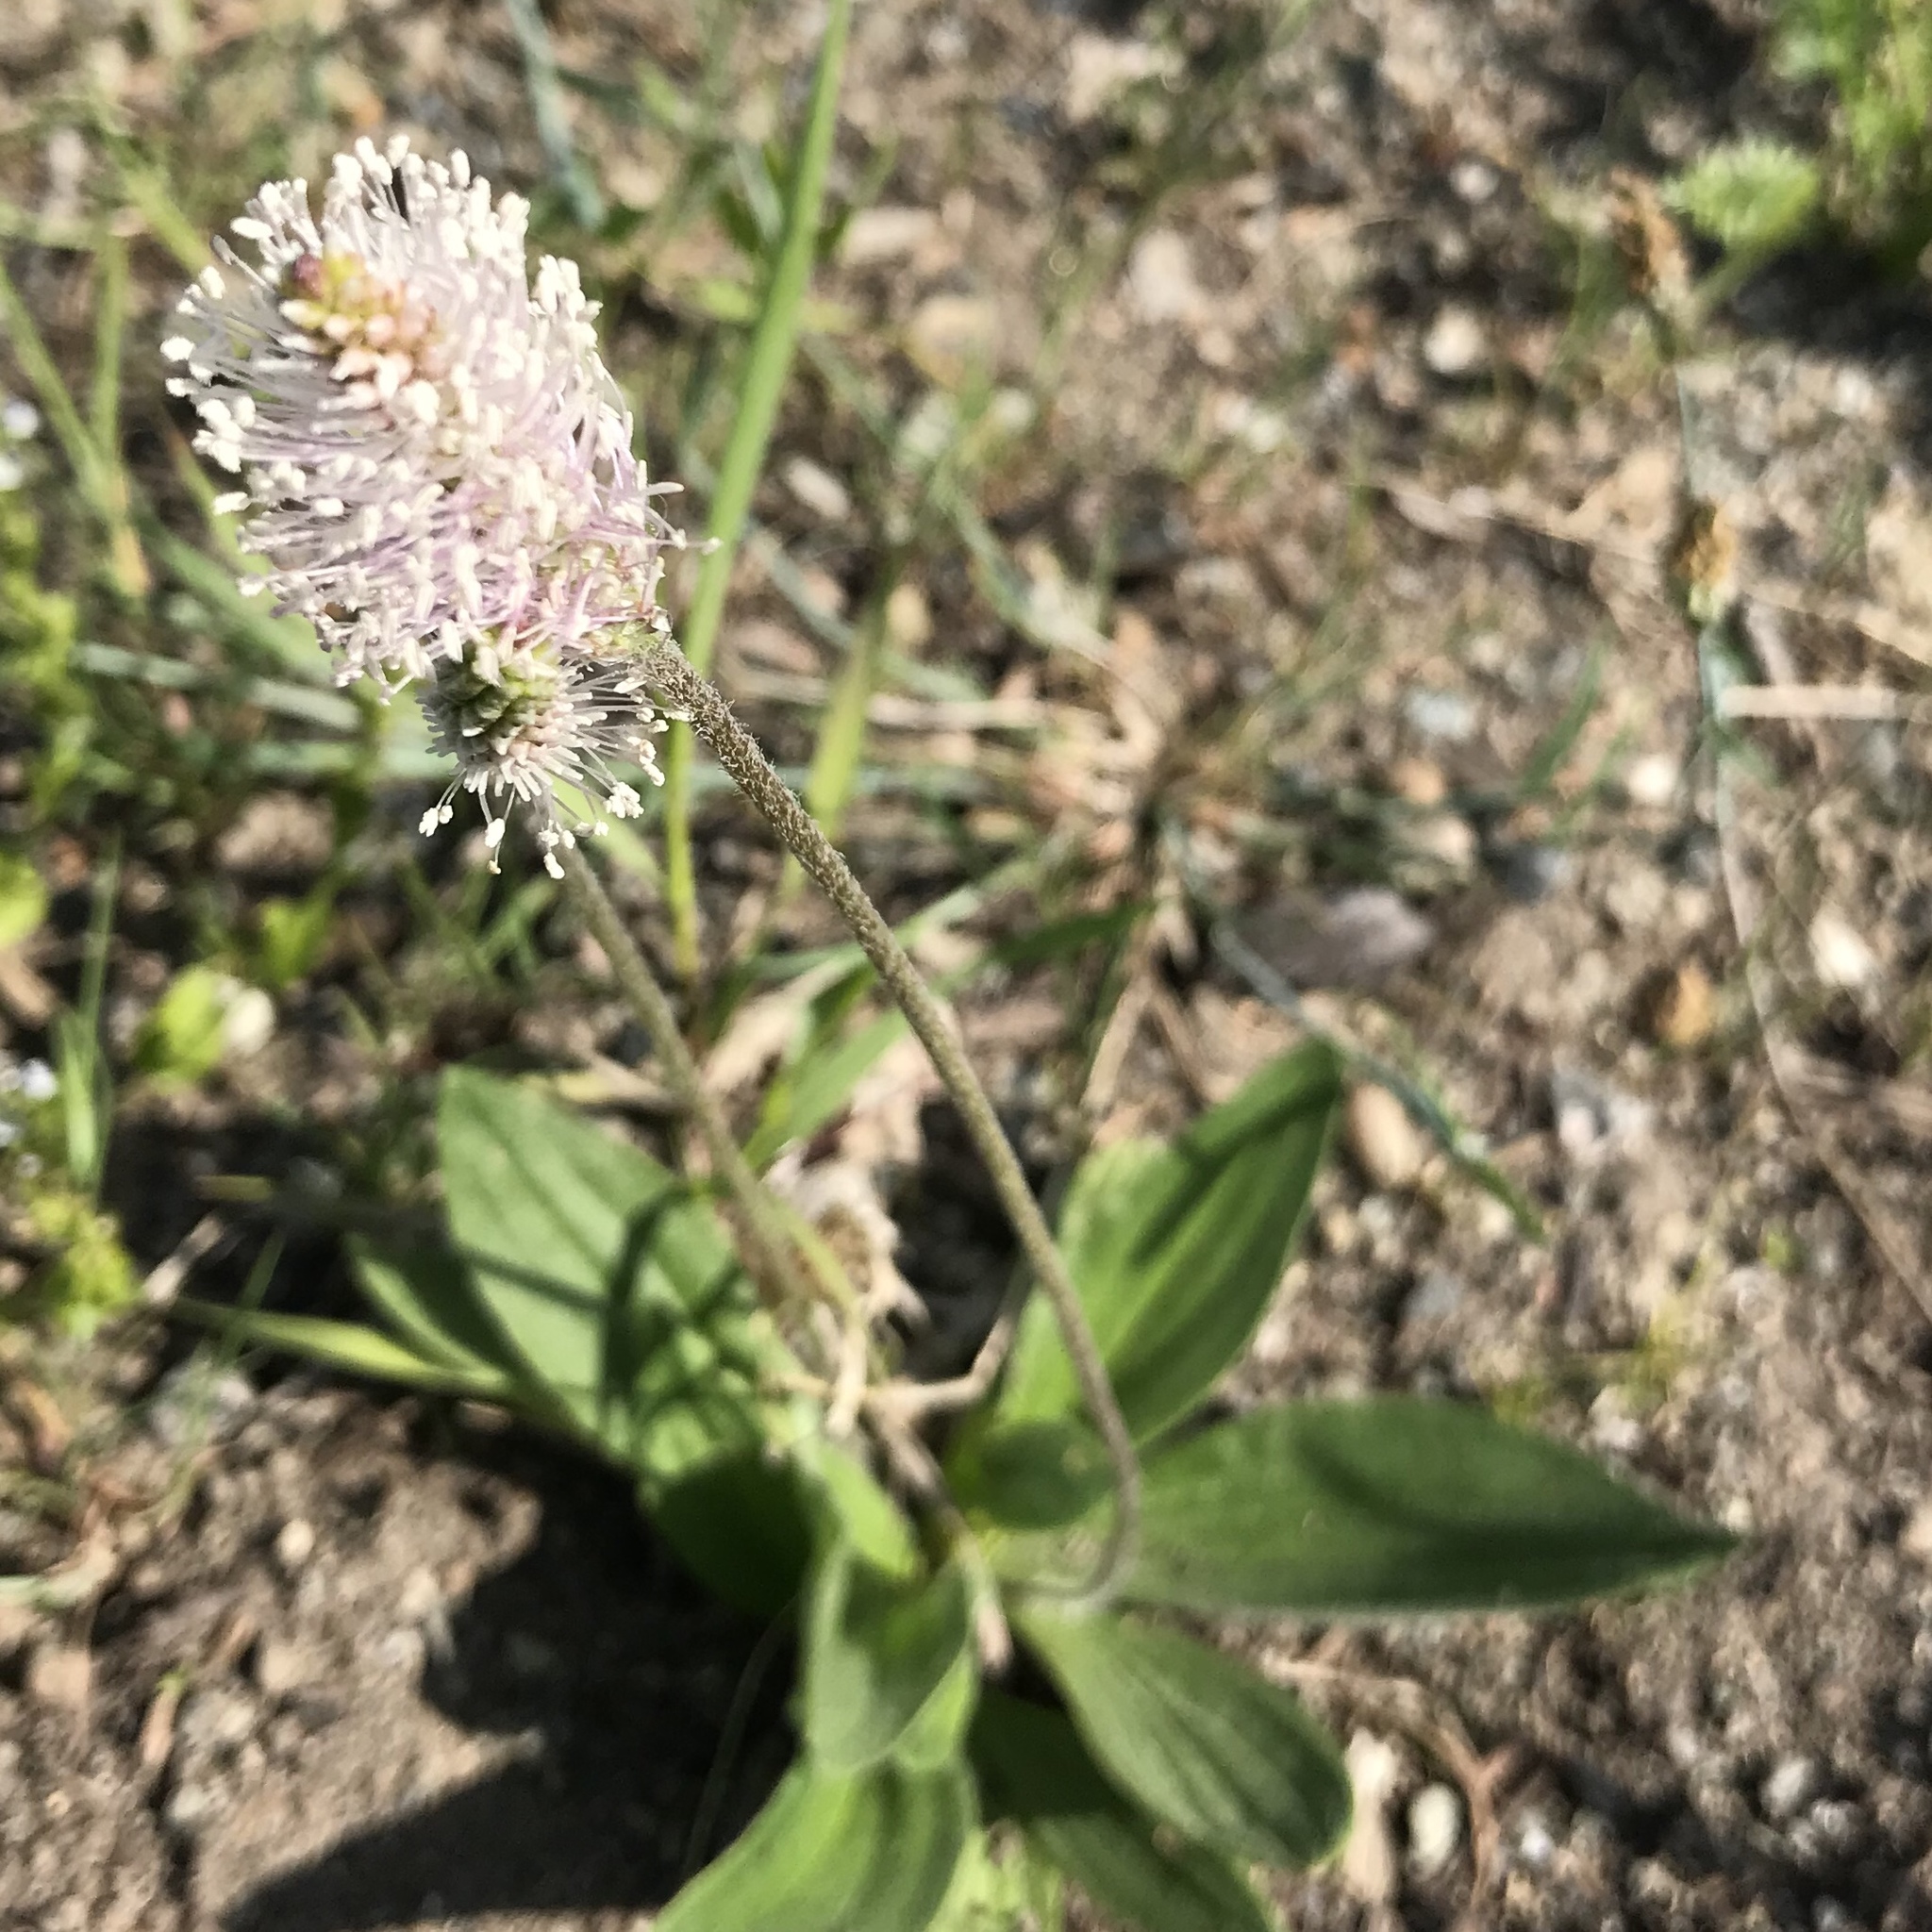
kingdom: Plantae
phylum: Tracheophyta
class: Magnoliopsida
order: Lamiales
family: Plantaginaceae
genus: Plantago
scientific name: Plantago media
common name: Hoary plantain
